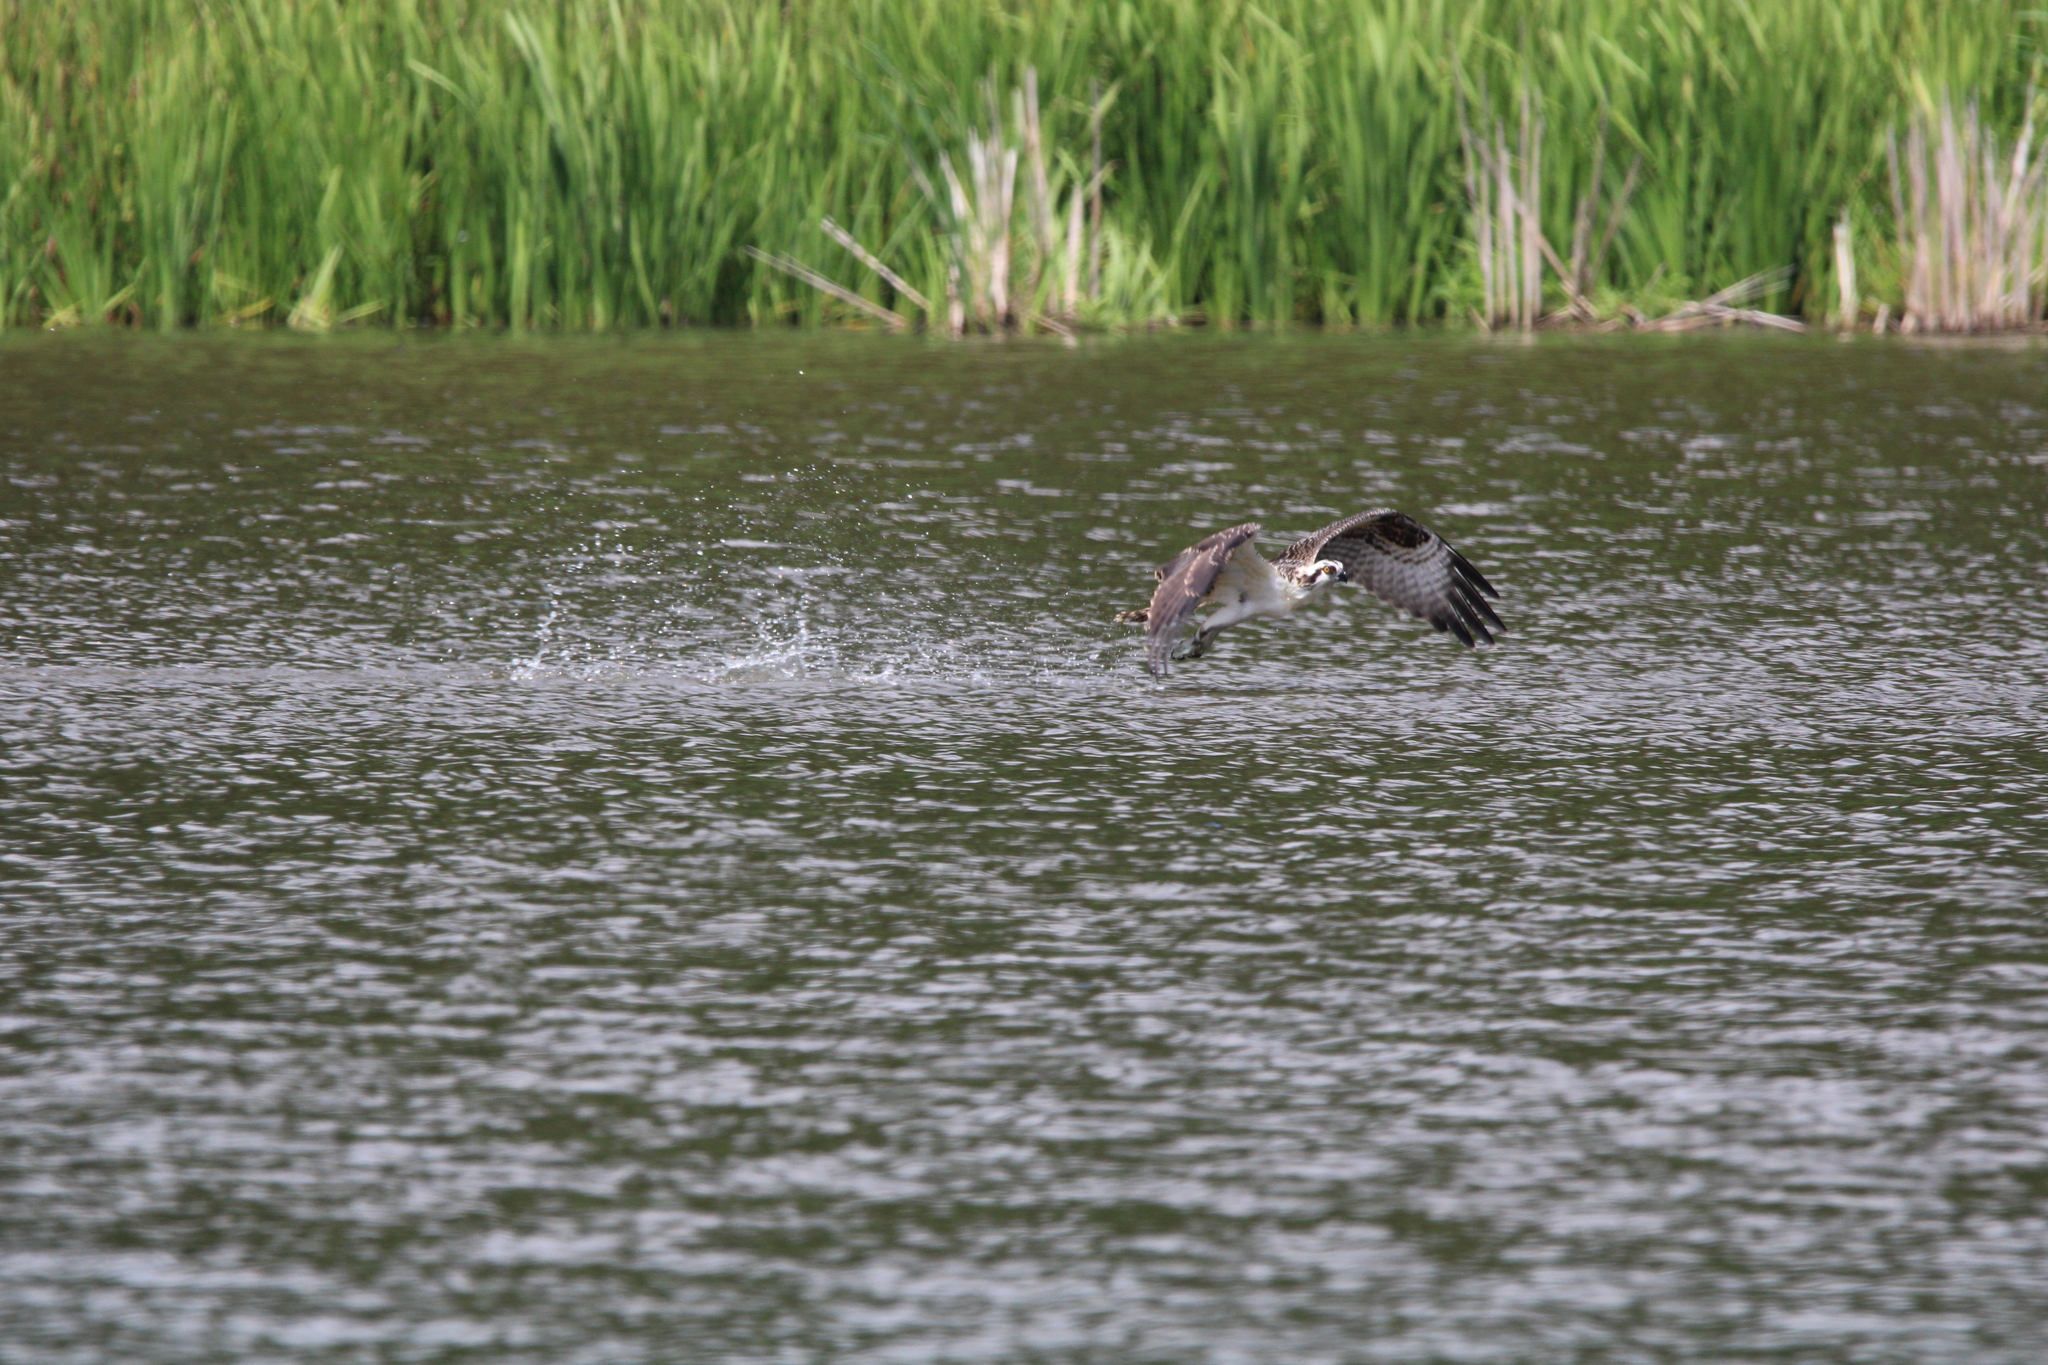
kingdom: Animalia
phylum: Chordata
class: Aves
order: Accipitriformes
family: Pandionidae
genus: Pandion
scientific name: Pandion haliaetus
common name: Osprey
